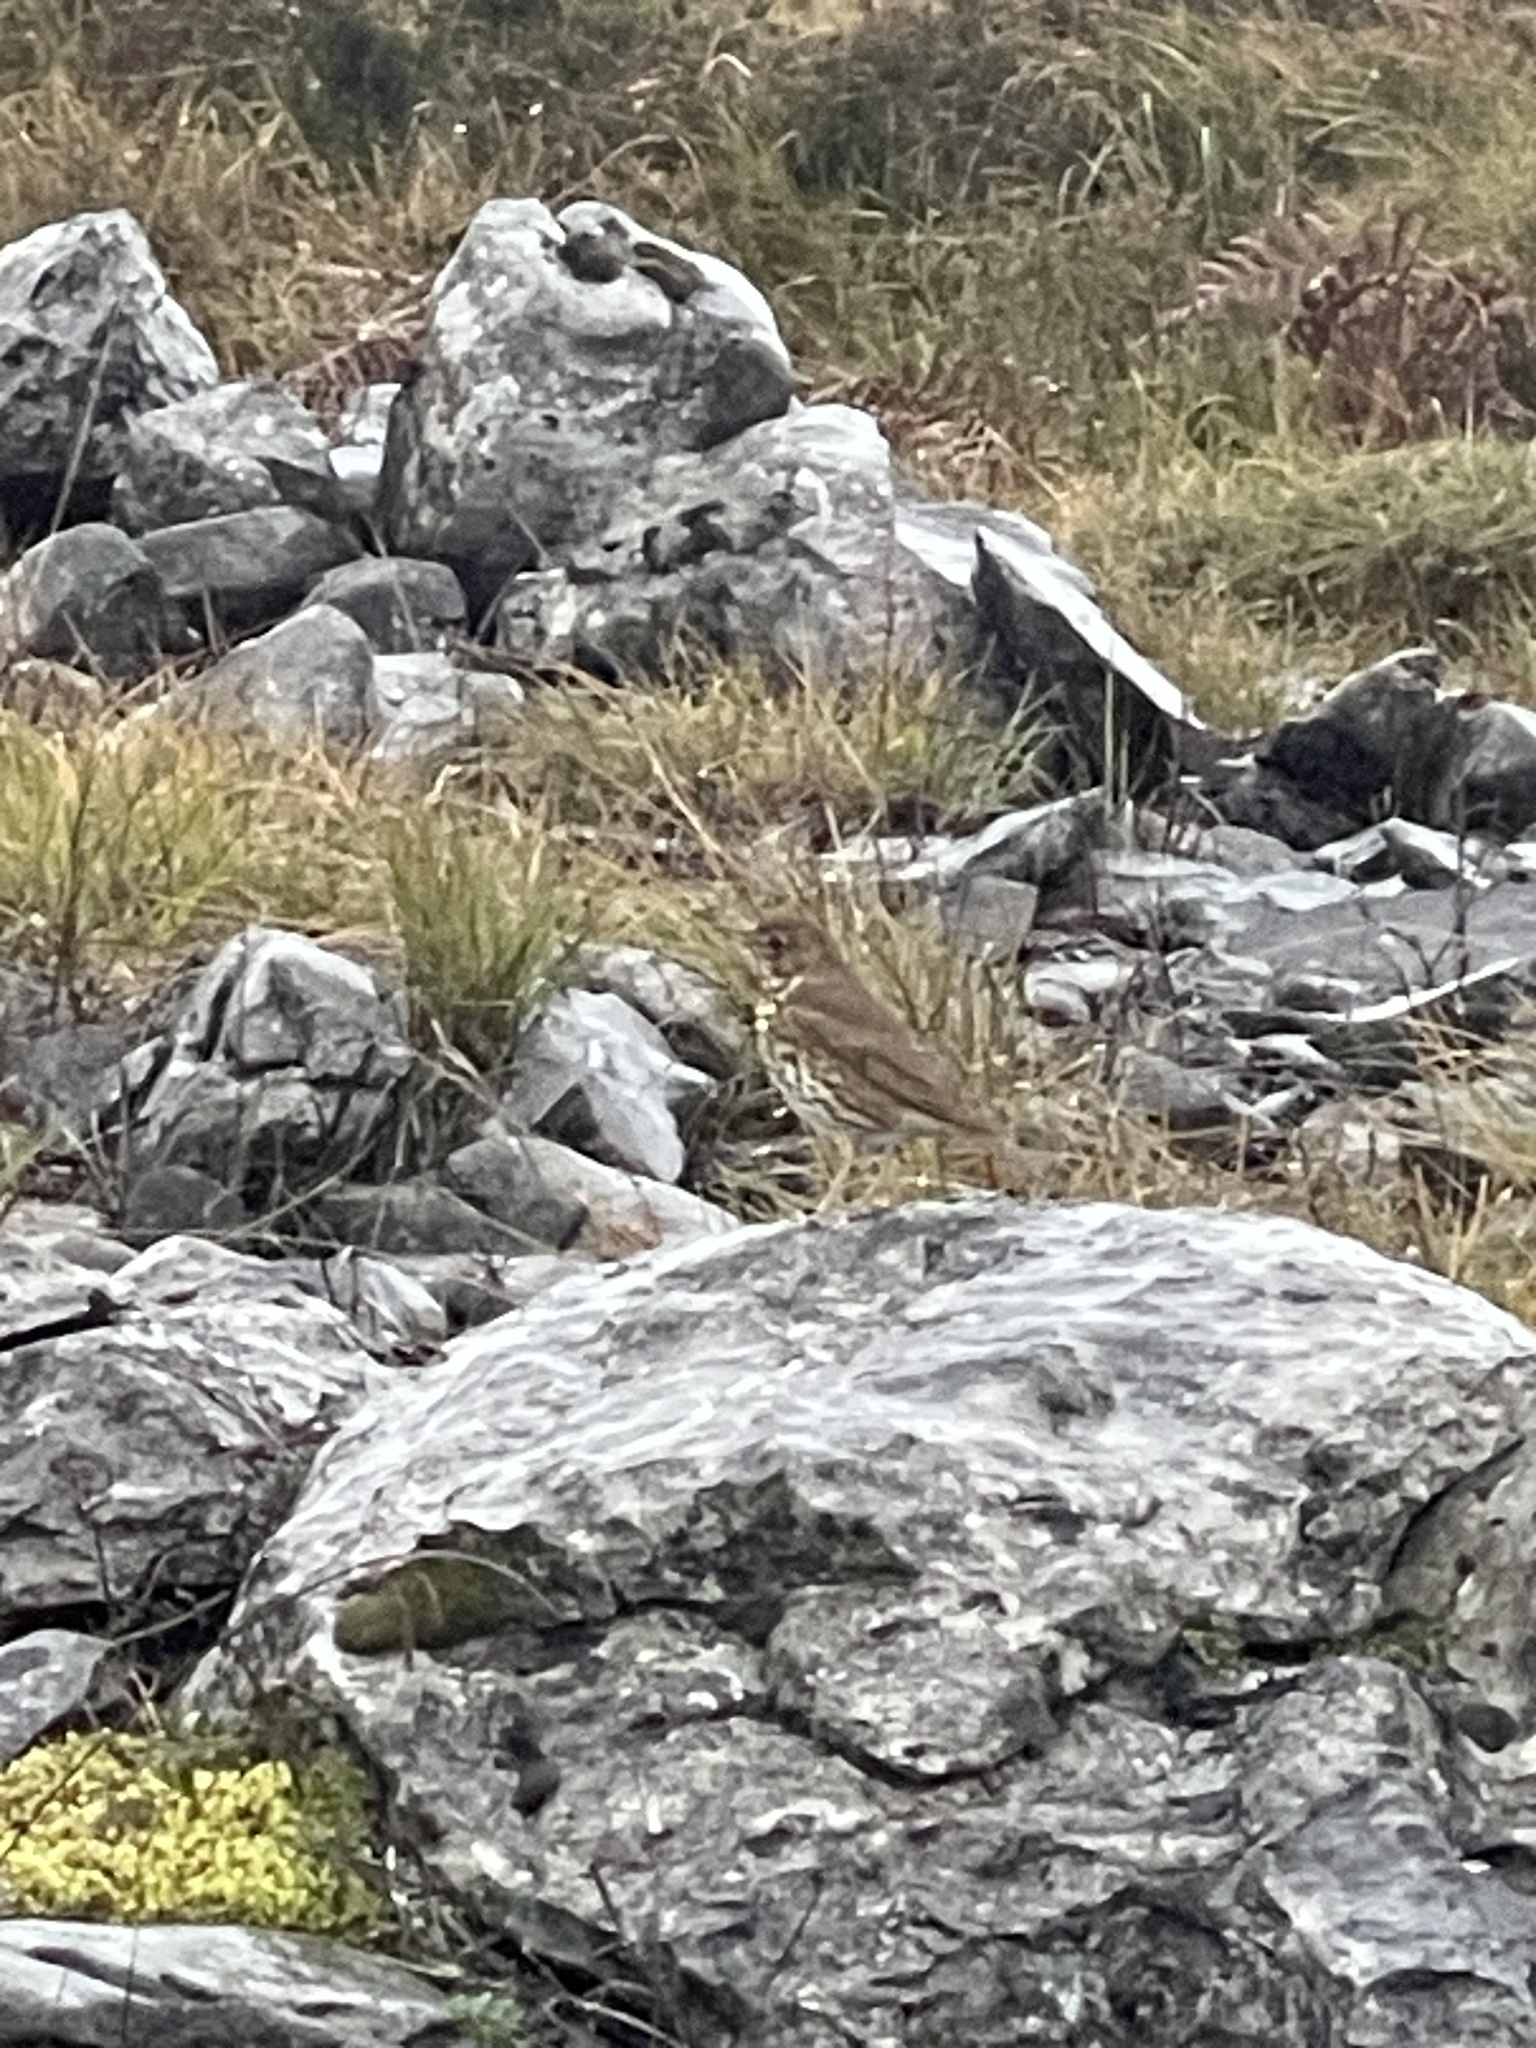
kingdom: Animalia
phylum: Chordata
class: Aves
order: Passeriformes
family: Turdidae
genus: Turdus
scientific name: Turdus philomelos
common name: Song thrush
